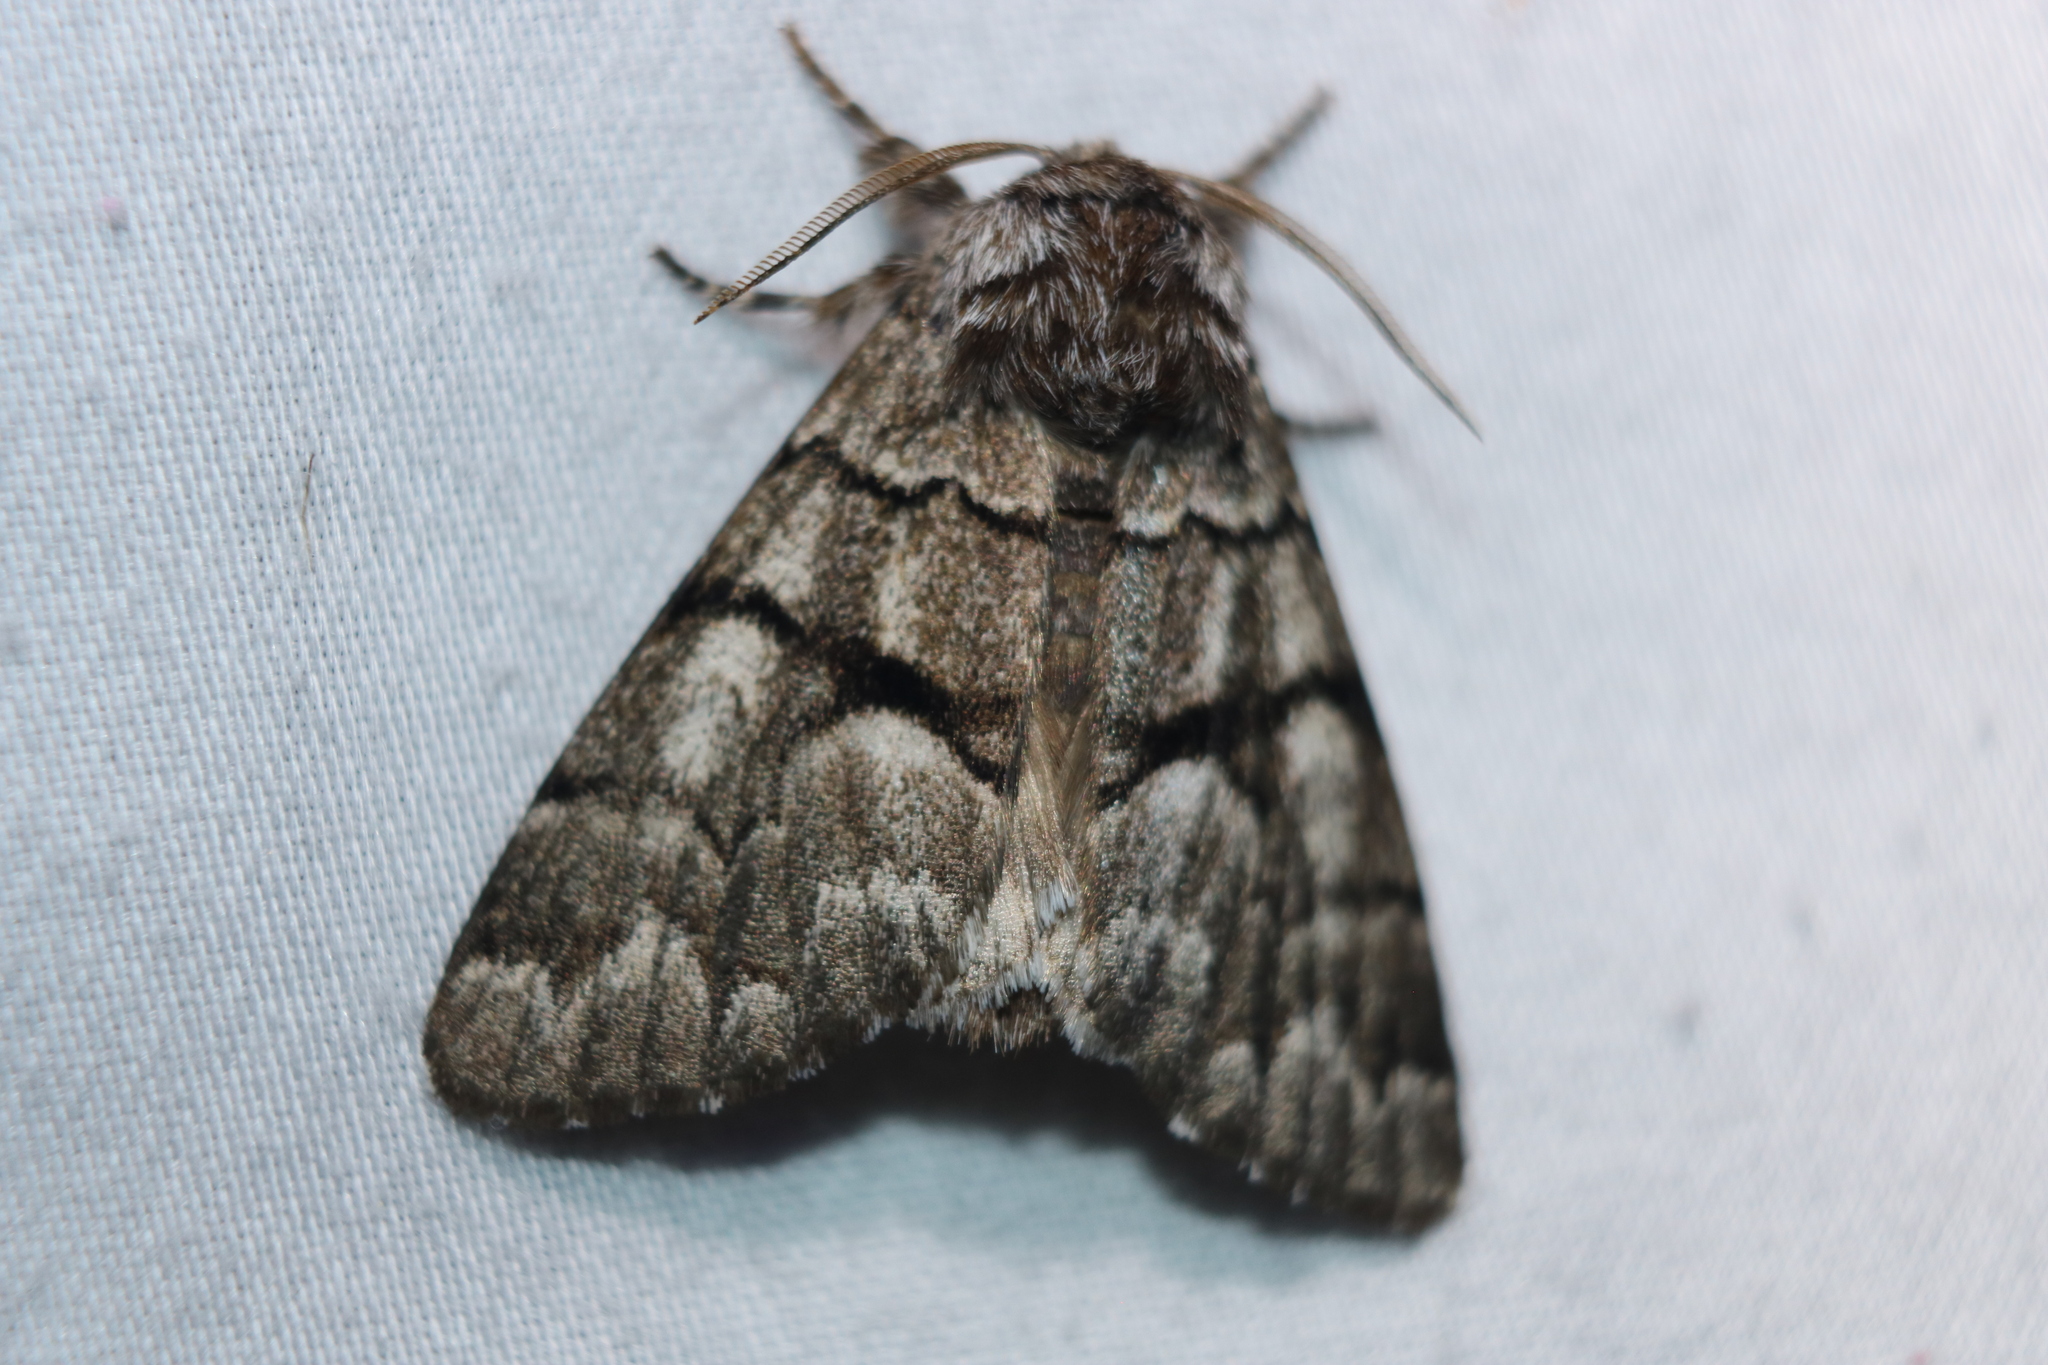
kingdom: Animalia
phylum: Arthropoda
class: Insecta
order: Lepidoptera
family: Noctuidae
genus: Panthea
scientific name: Panthea furcilla
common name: Eastern panthea moth
